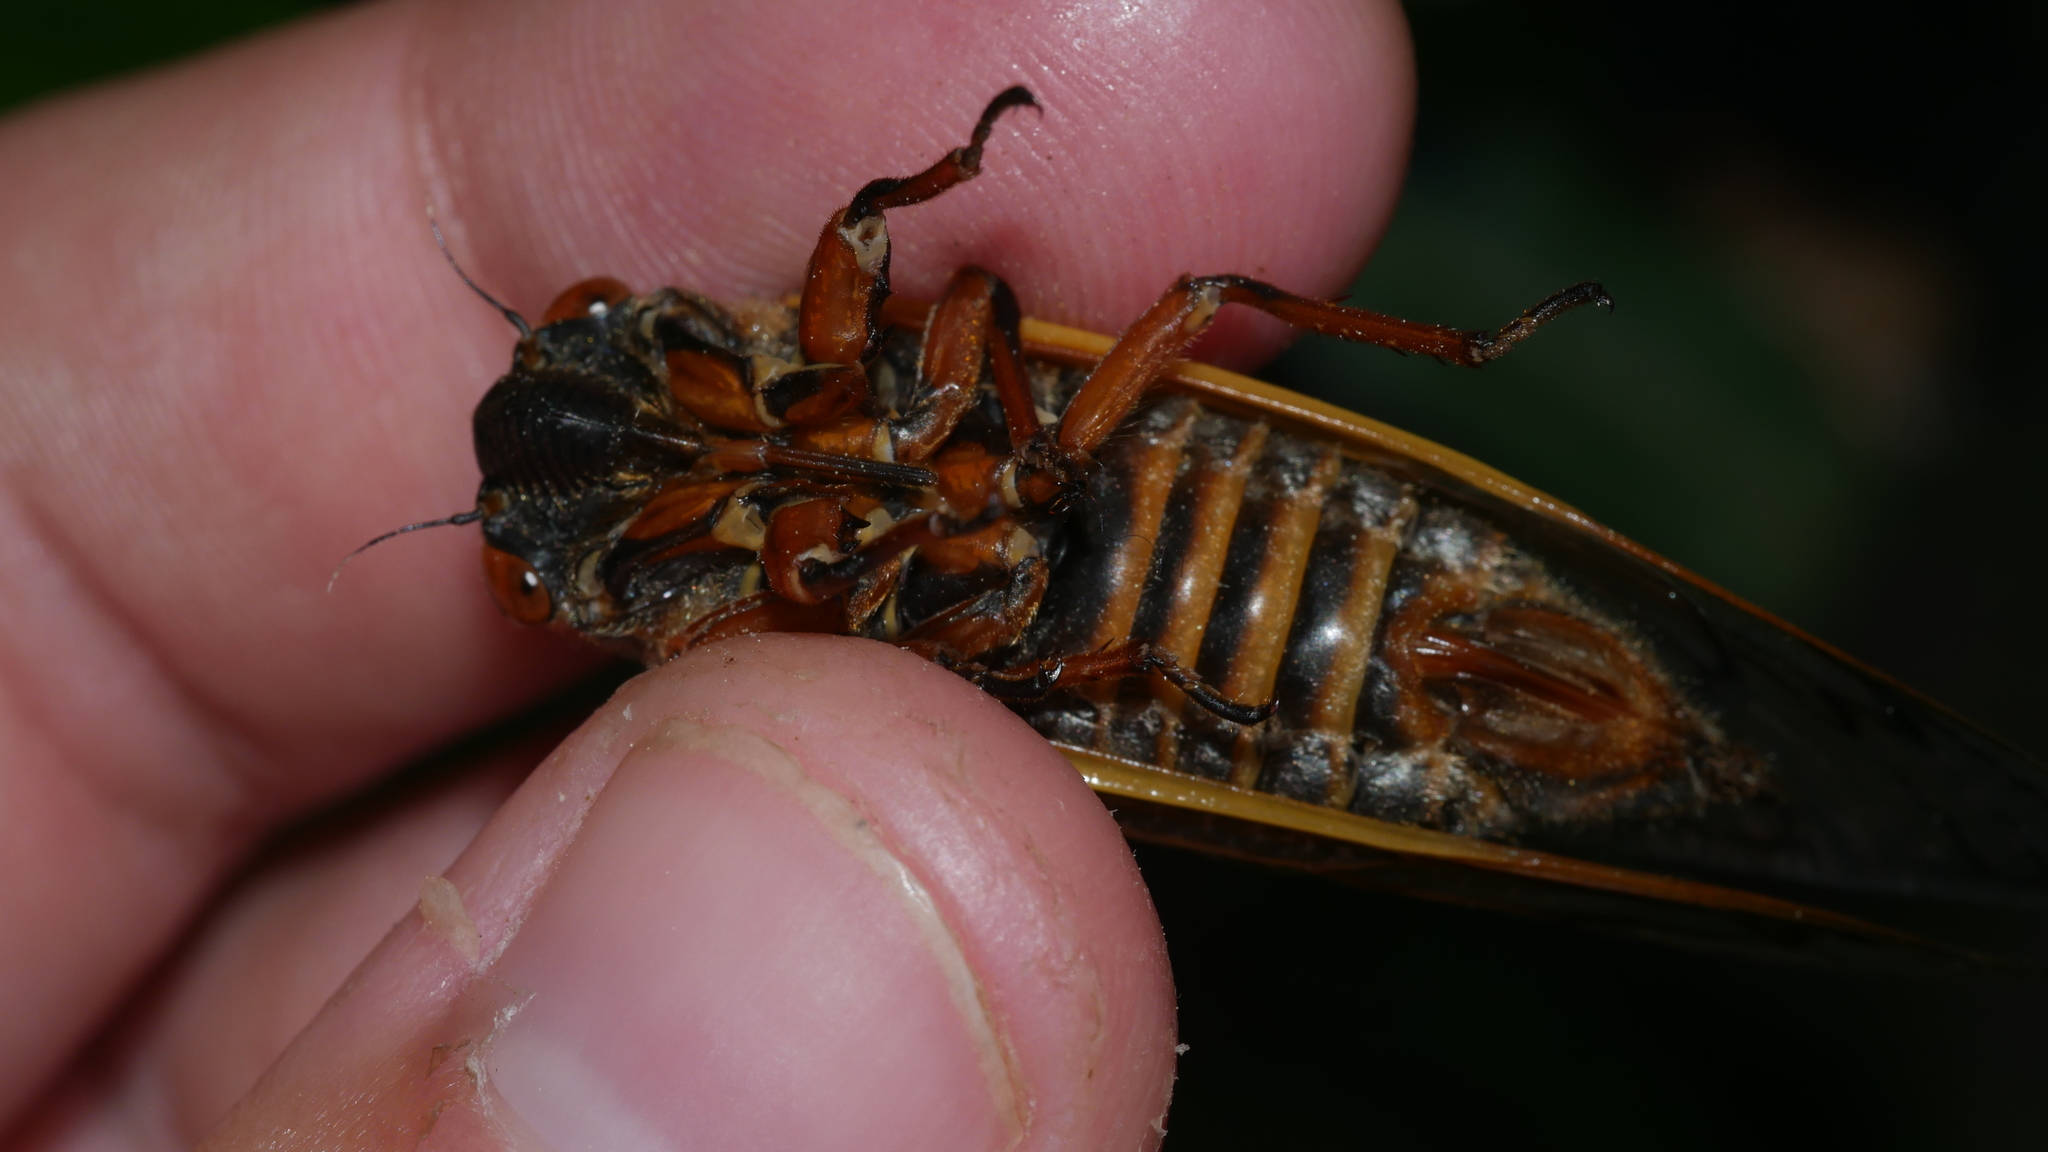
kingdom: Animalia
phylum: Arthropoda
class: Insecta
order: Hemiptera
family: Cicadidae
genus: Magicicada
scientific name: Magicicada septendecim
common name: Periodical cicada
